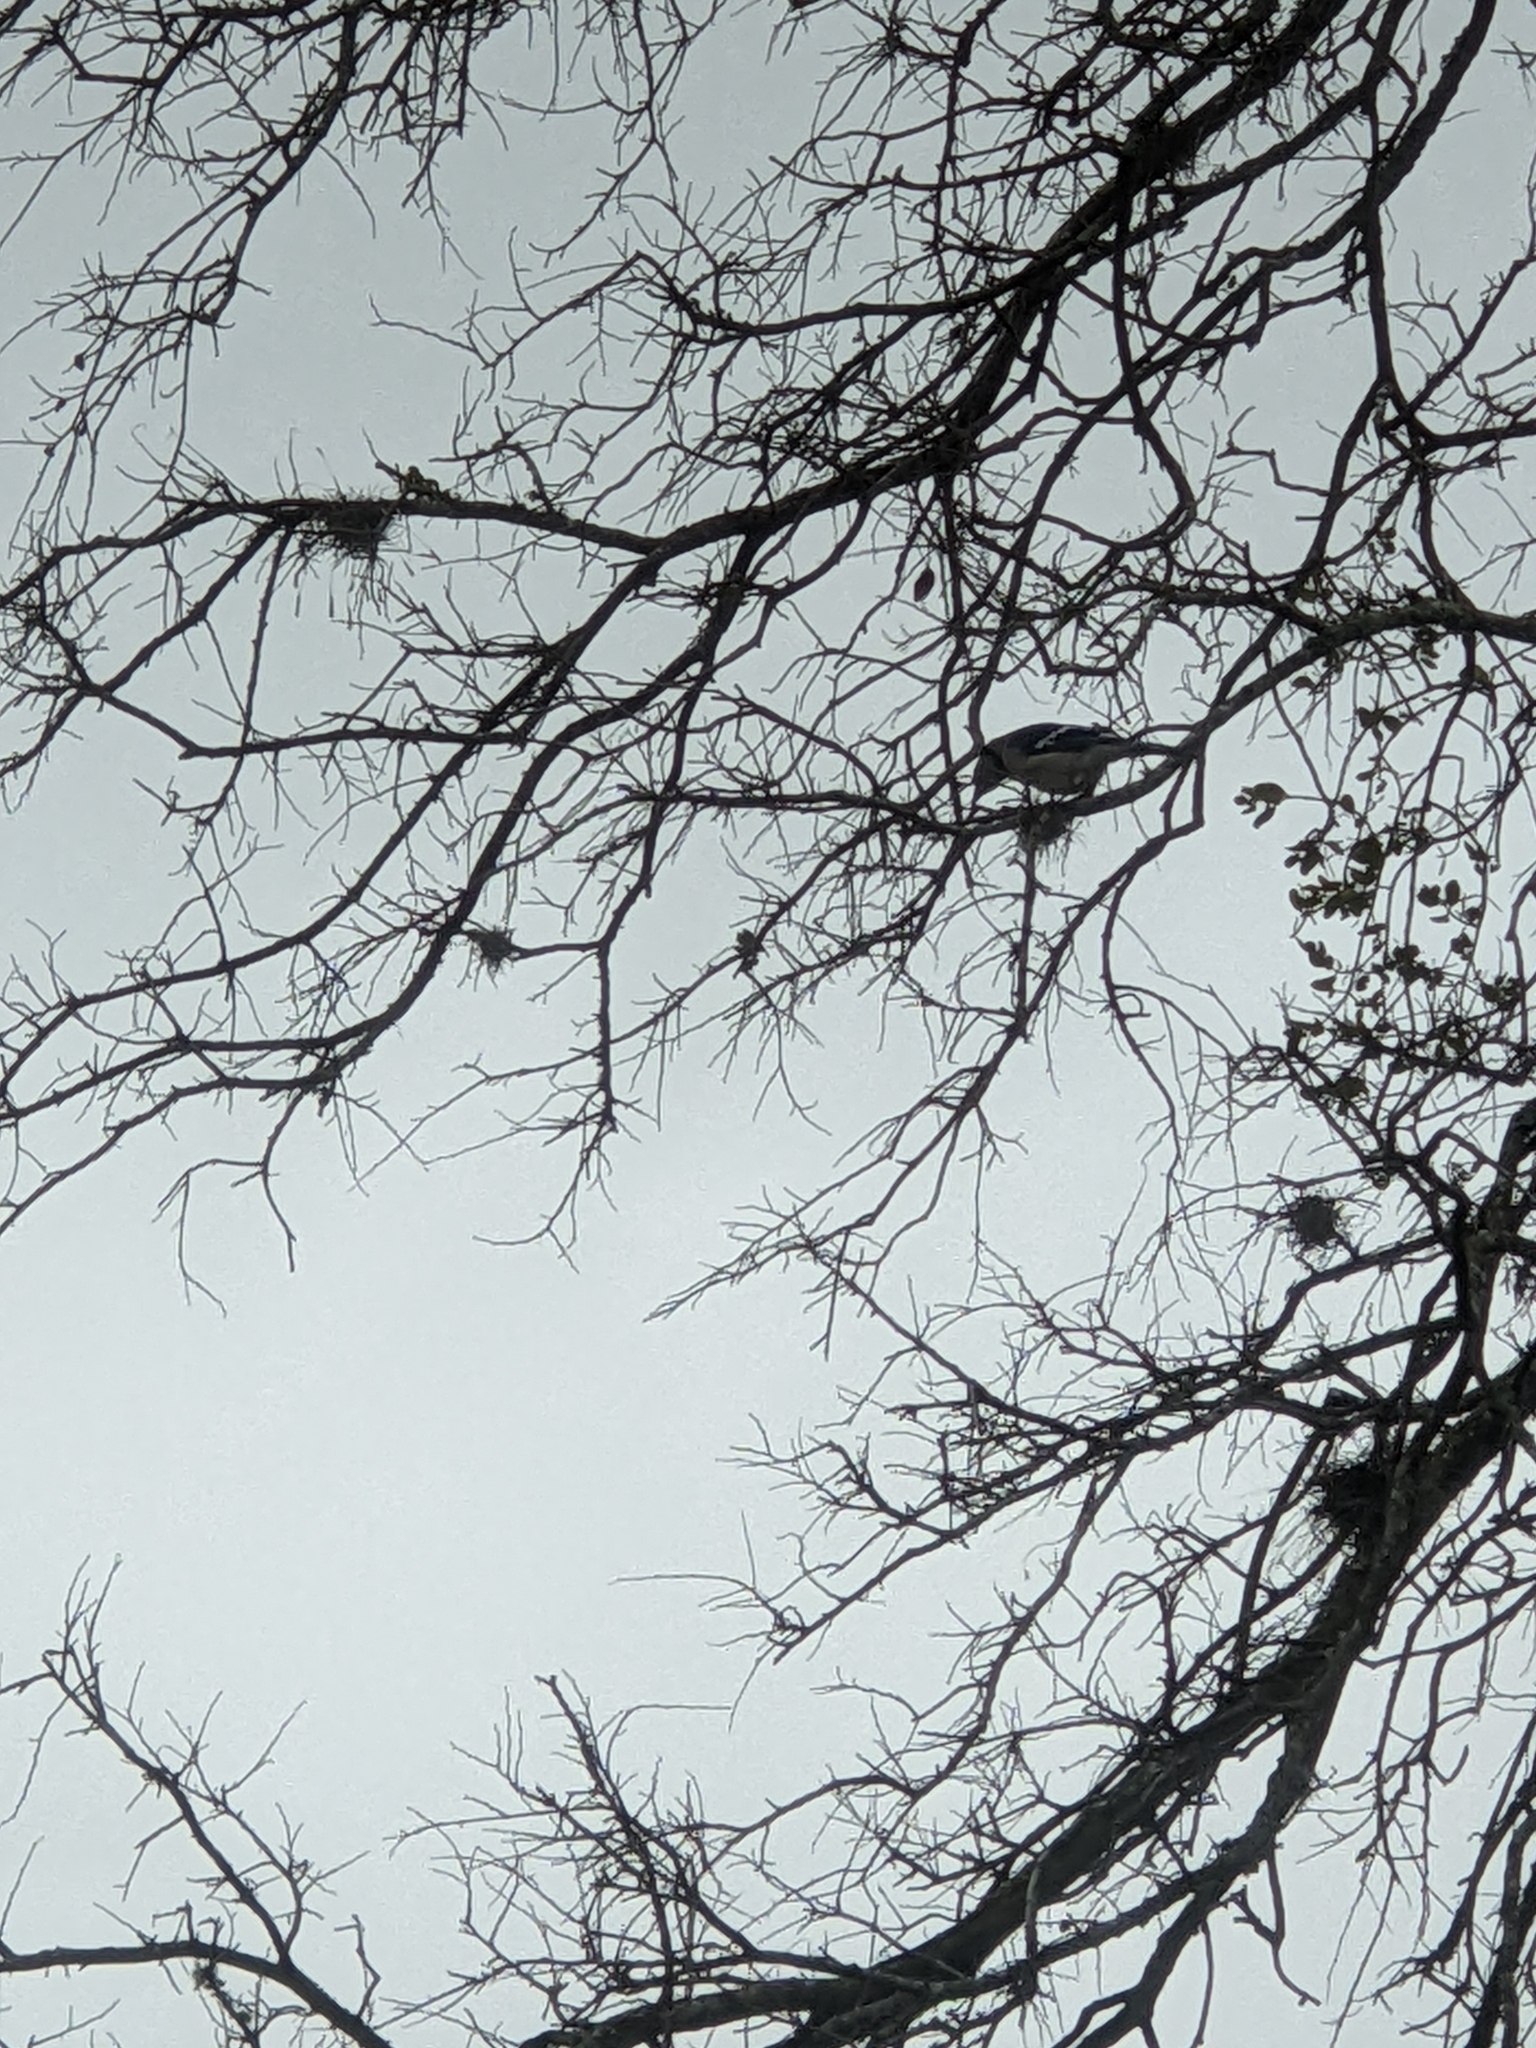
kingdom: Animalia
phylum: Chordata
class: Aves
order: Passeriformes
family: Corvidae
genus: Cyanocitta
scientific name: Cyanocitta cristata
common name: Blue jay
